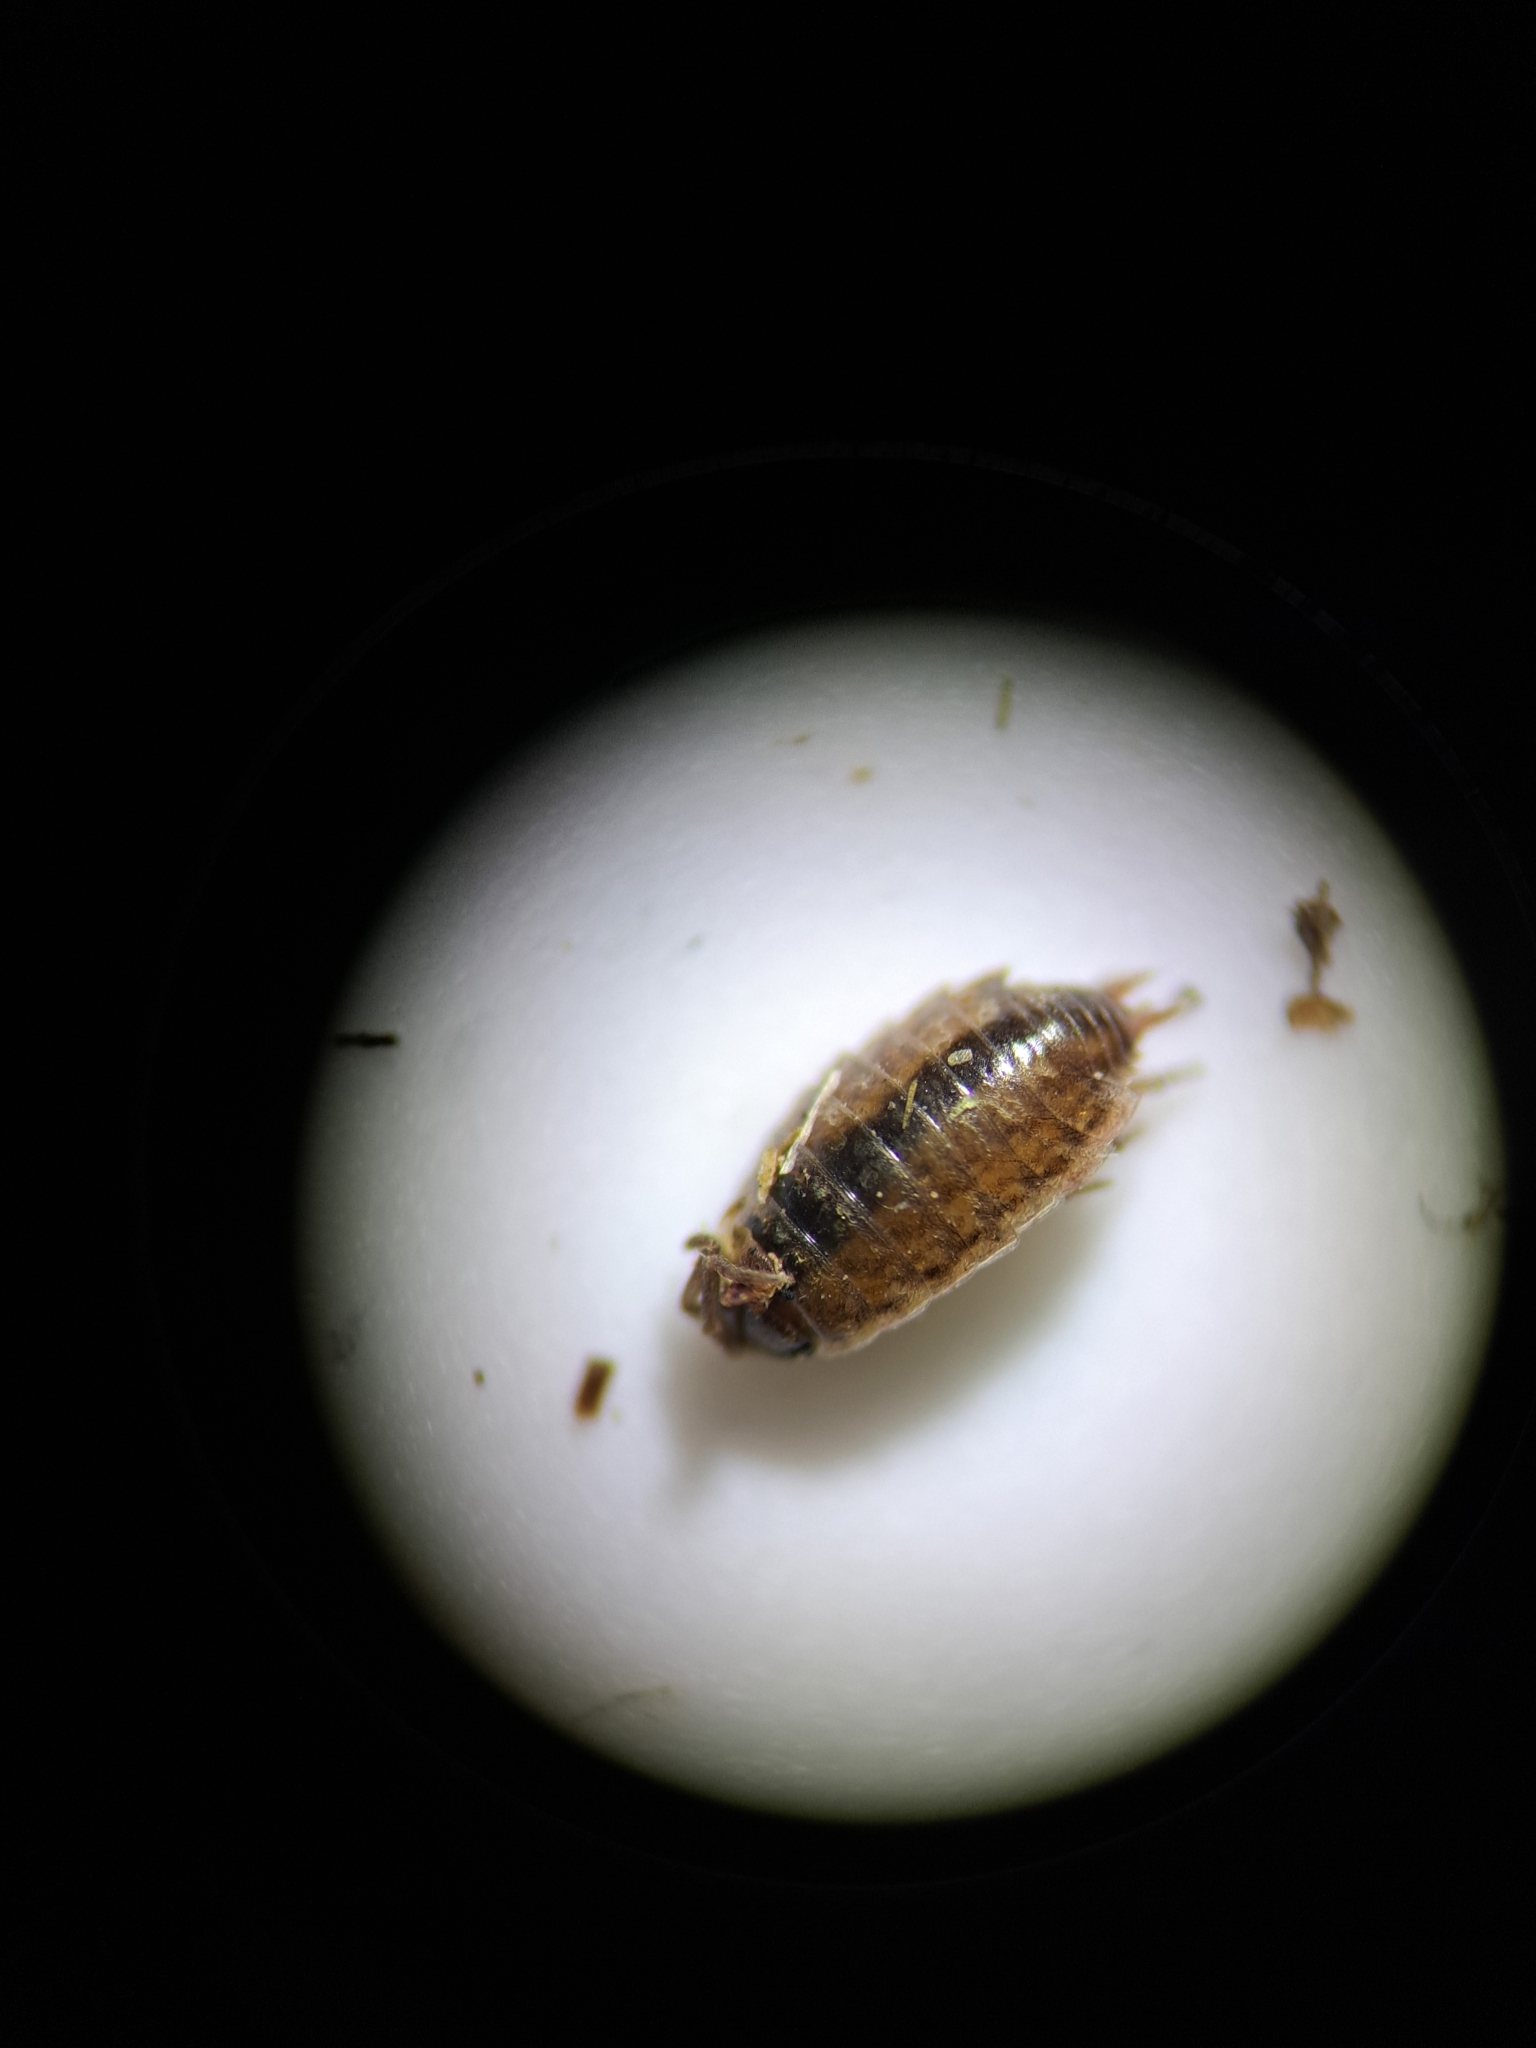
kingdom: Animalia
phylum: Arthropoda
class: Malacostraca
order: Isopoda
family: Philosciidae
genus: Philoscia
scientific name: Philoscia muscorum
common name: Common striped woodlouse
